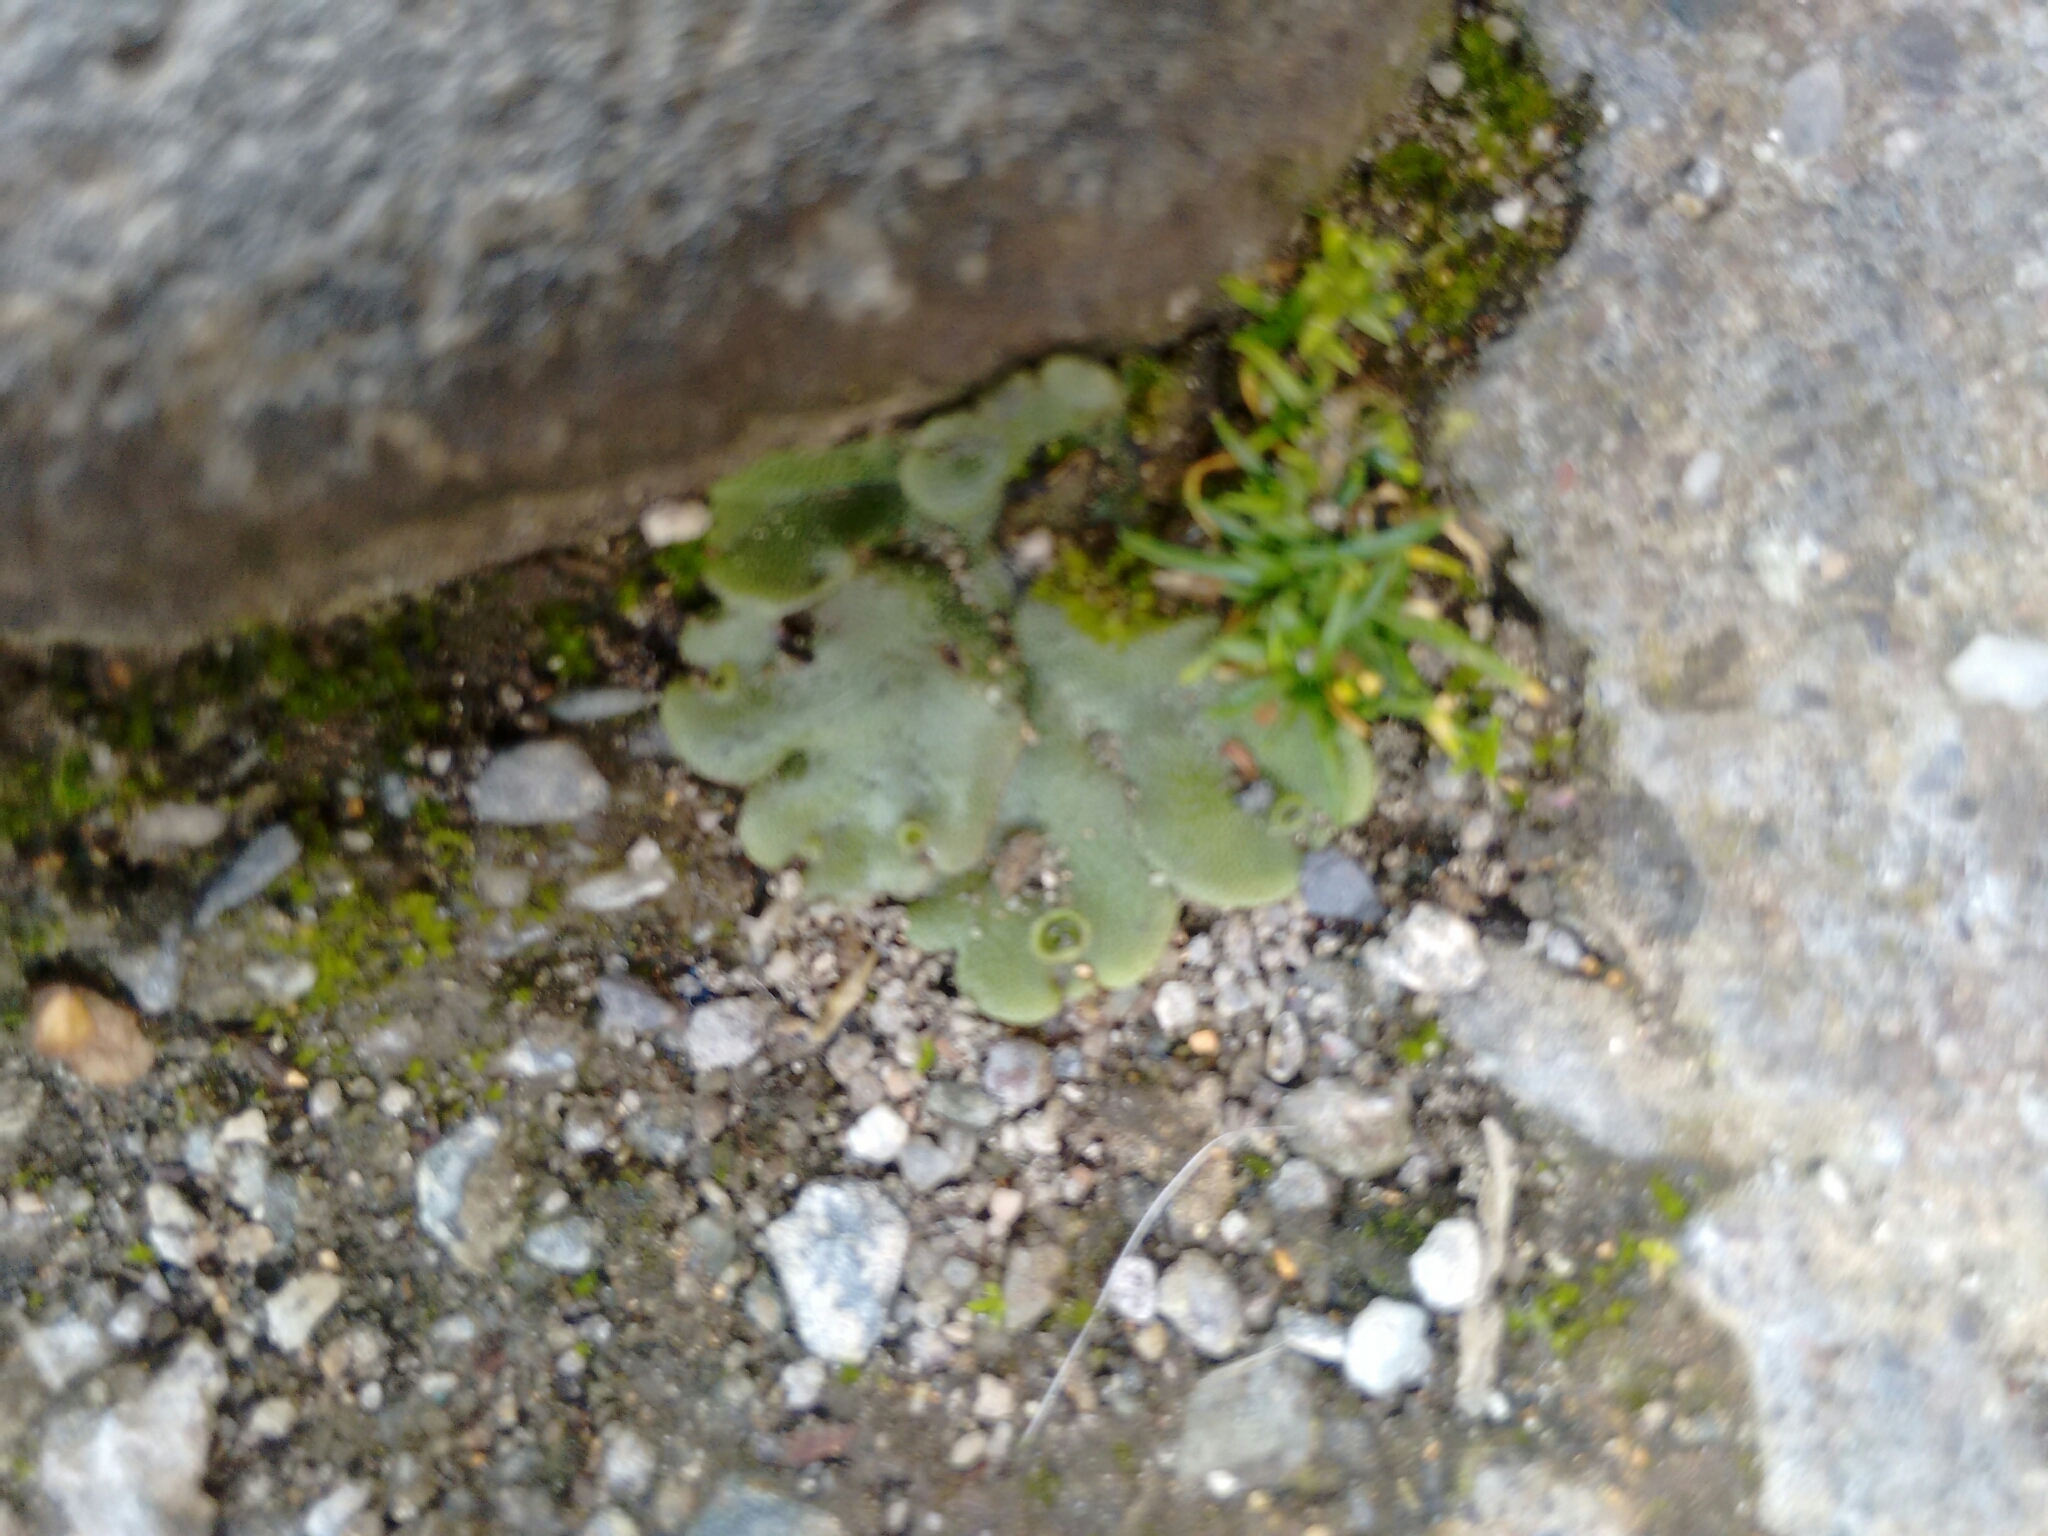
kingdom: Plantae
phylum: Marchantiophyta
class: Marchantiopsida
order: Marchantiales
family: Marchantiaceae
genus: Marchantia
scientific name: Marchantia polymorpha
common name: Common liverwort
